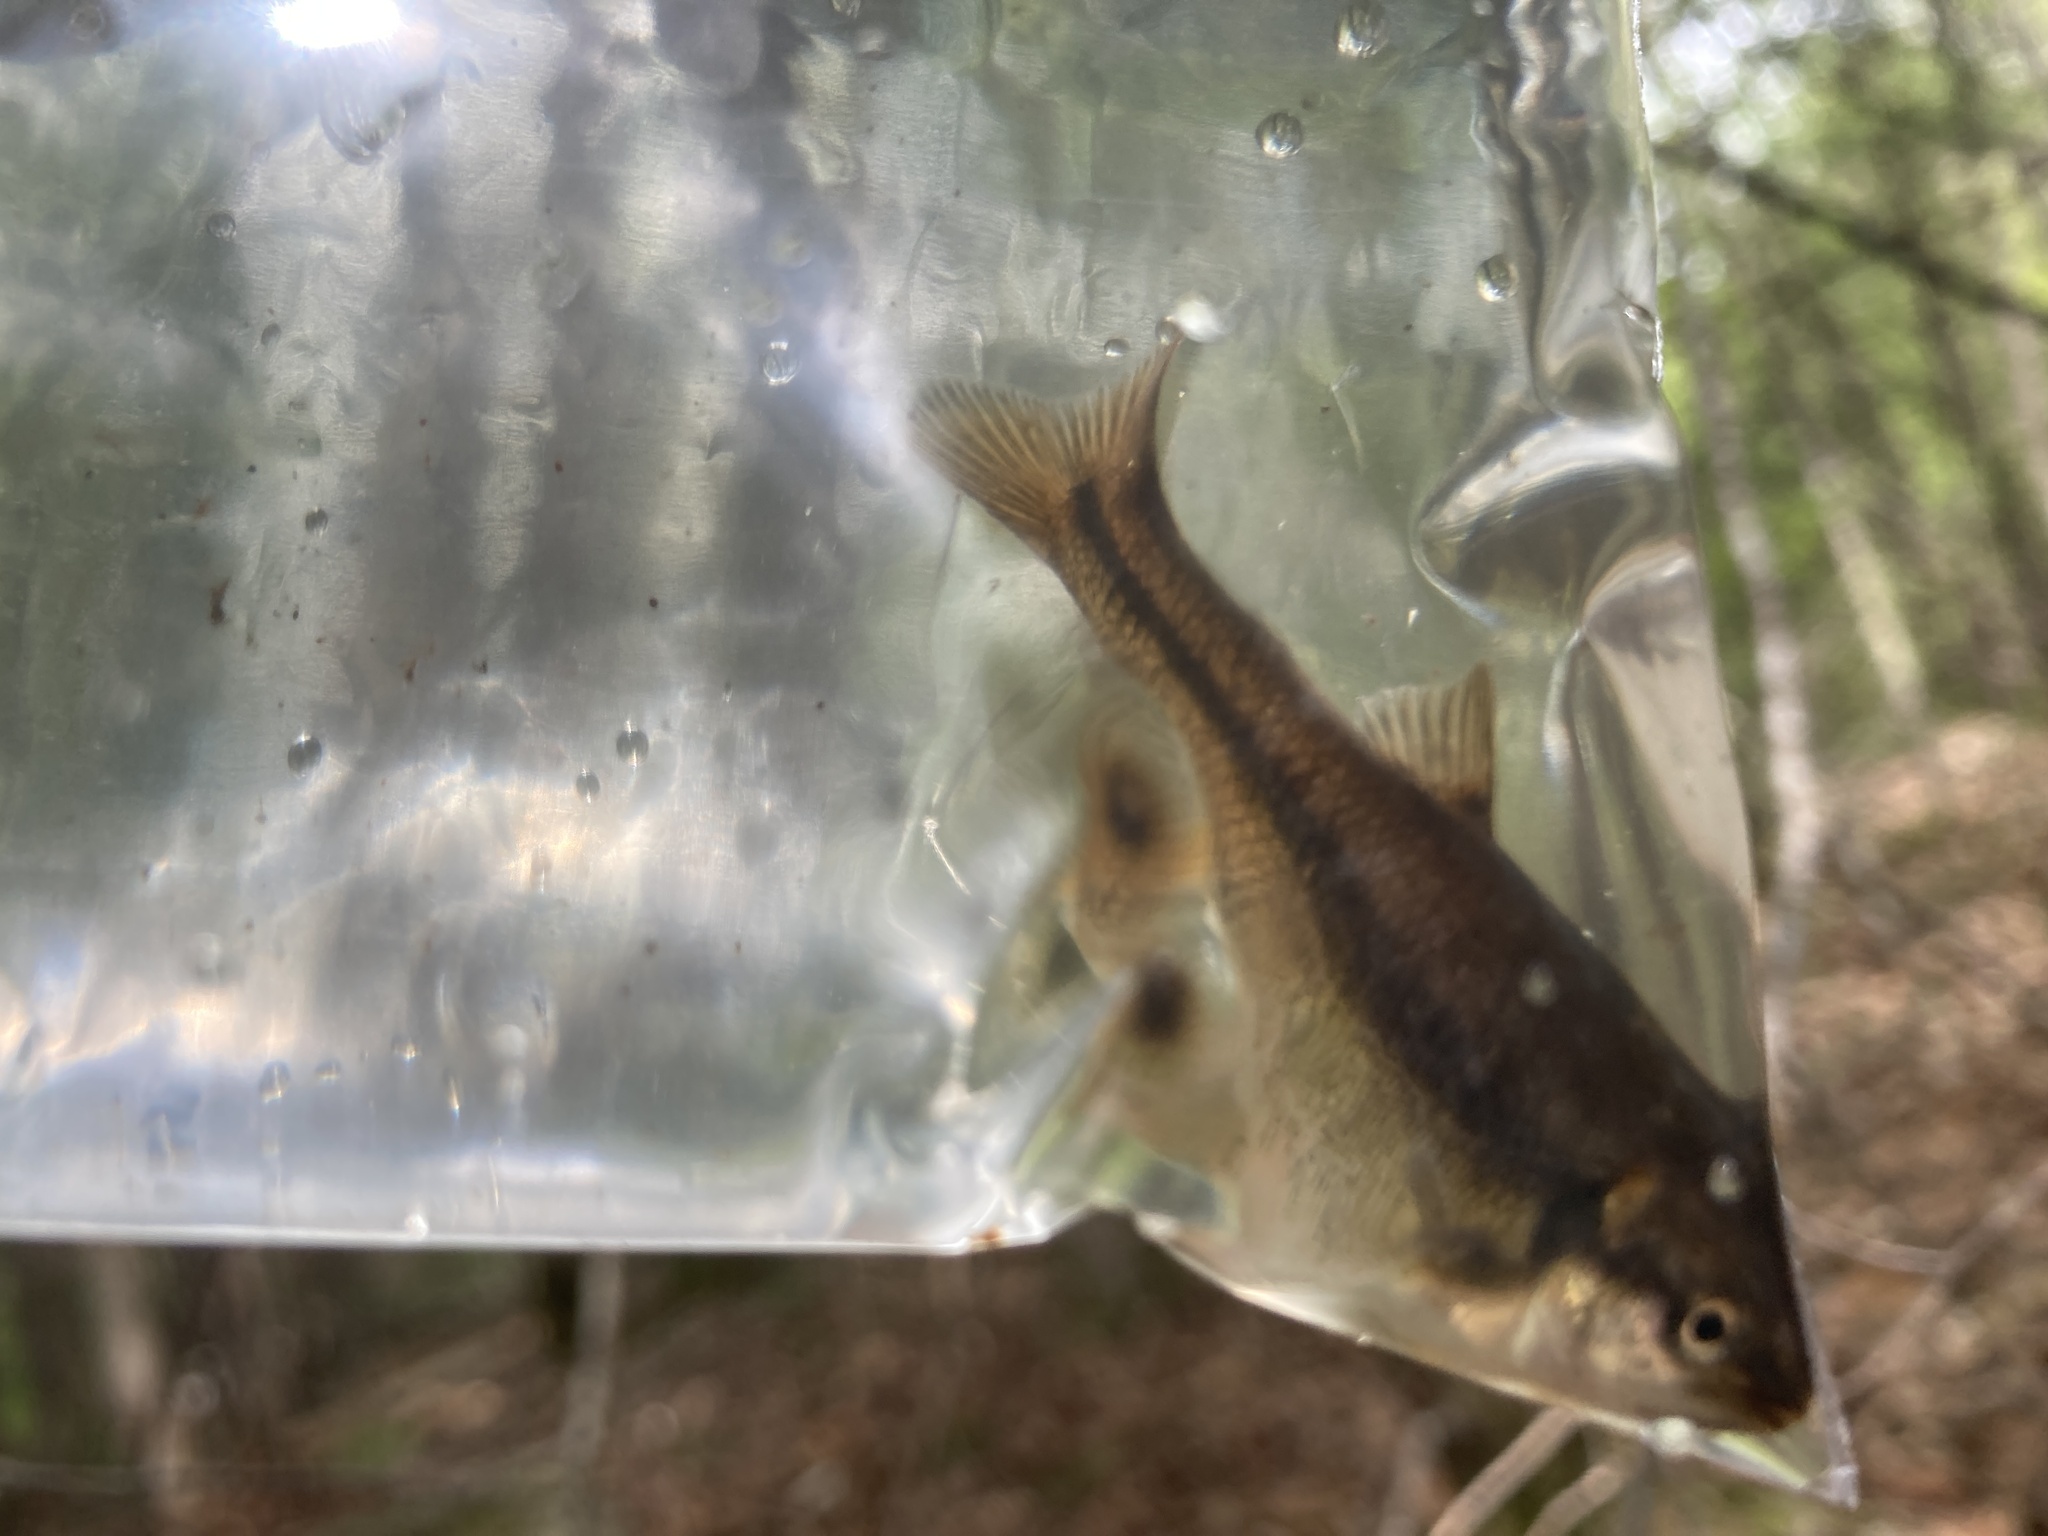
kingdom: Animalia
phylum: Chordata
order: Cypriniformes
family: Cyprinidae
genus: Semotilus
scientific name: Semotilus atromaculatus
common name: Creek chub
